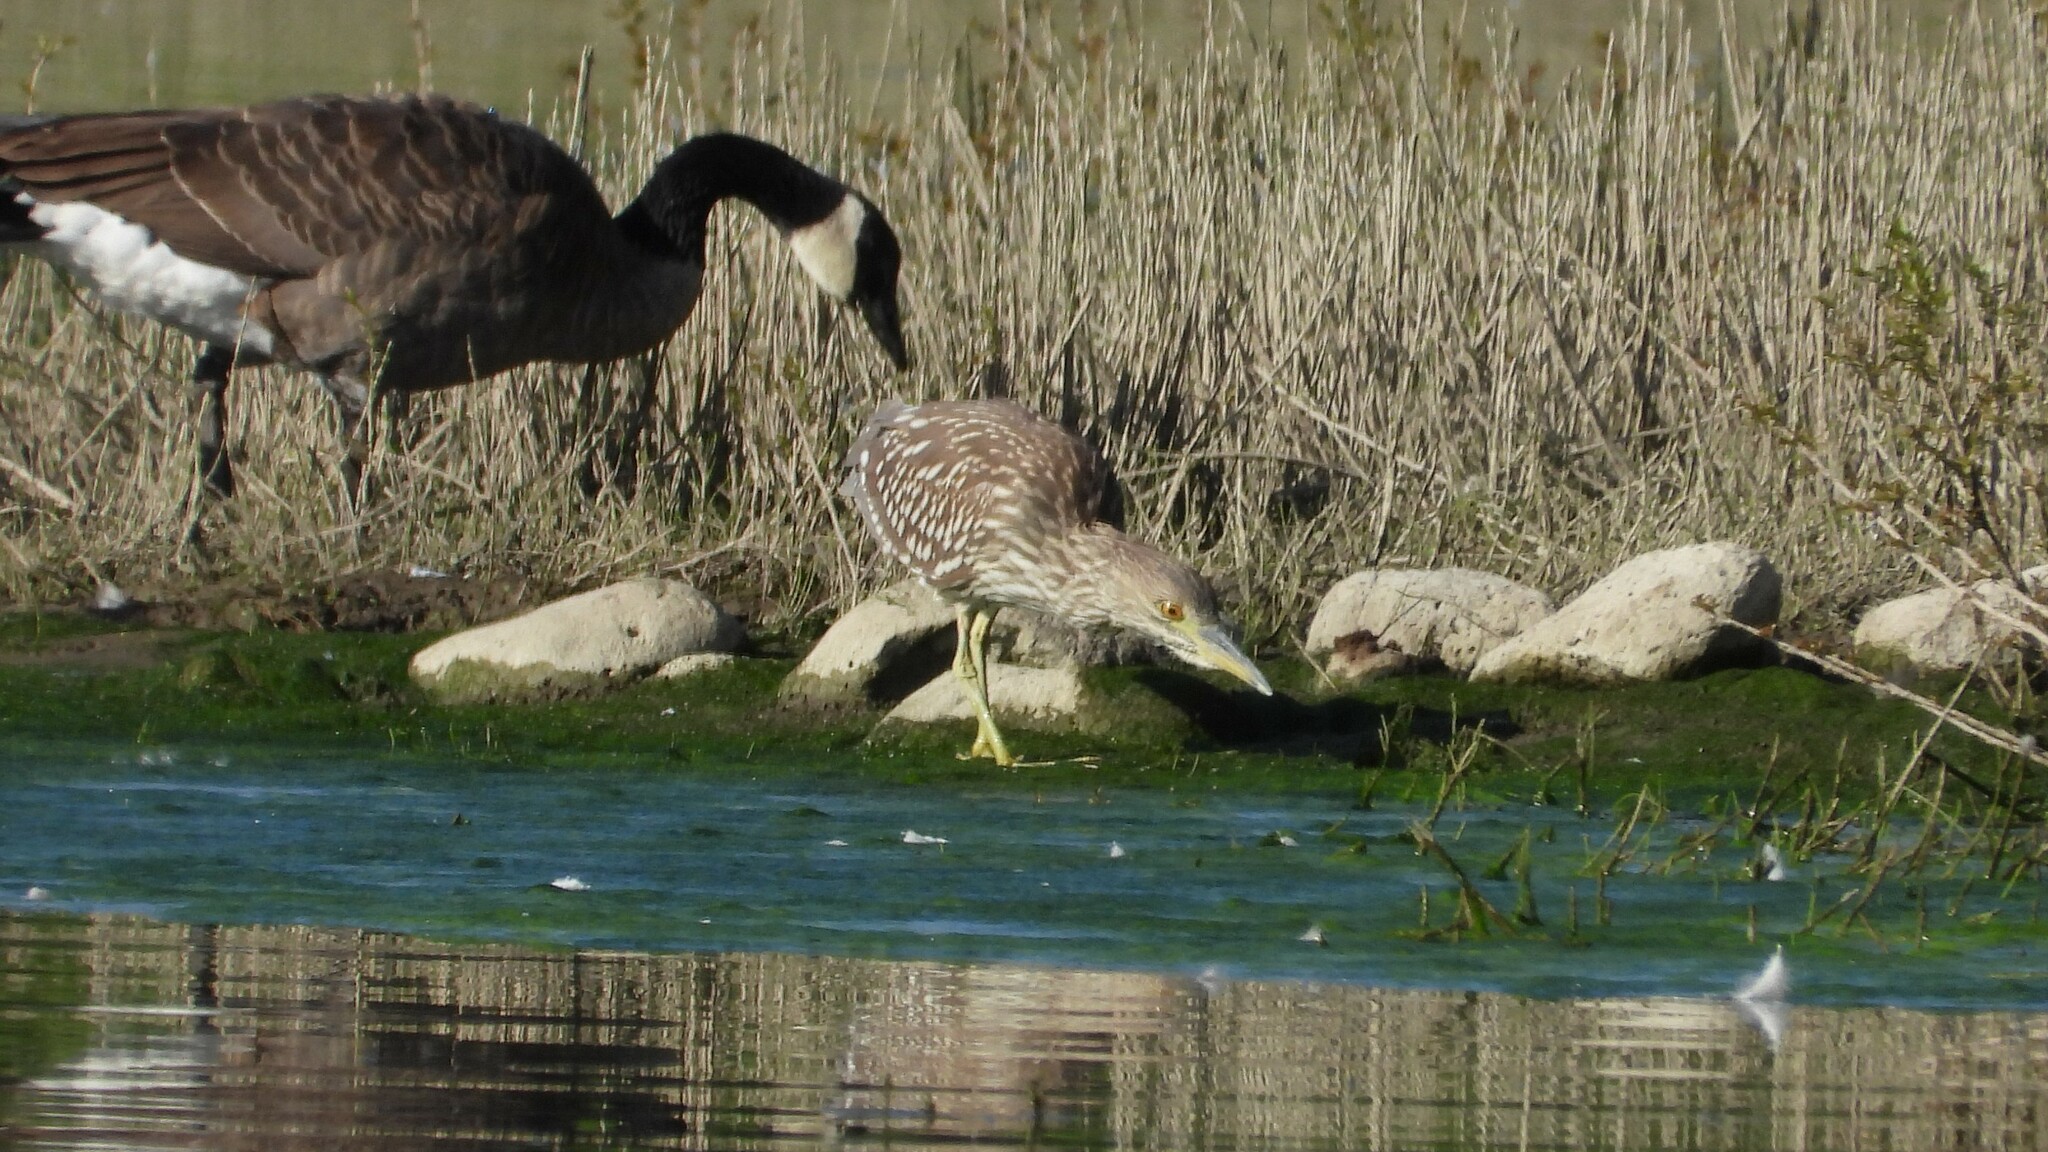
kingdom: Animalia
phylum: Chordata
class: Aves
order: Pelecaniformes
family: Ardeidae
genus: Nycticorax
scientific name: Nycticorax nycticorax
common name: Black-crowned night heron
